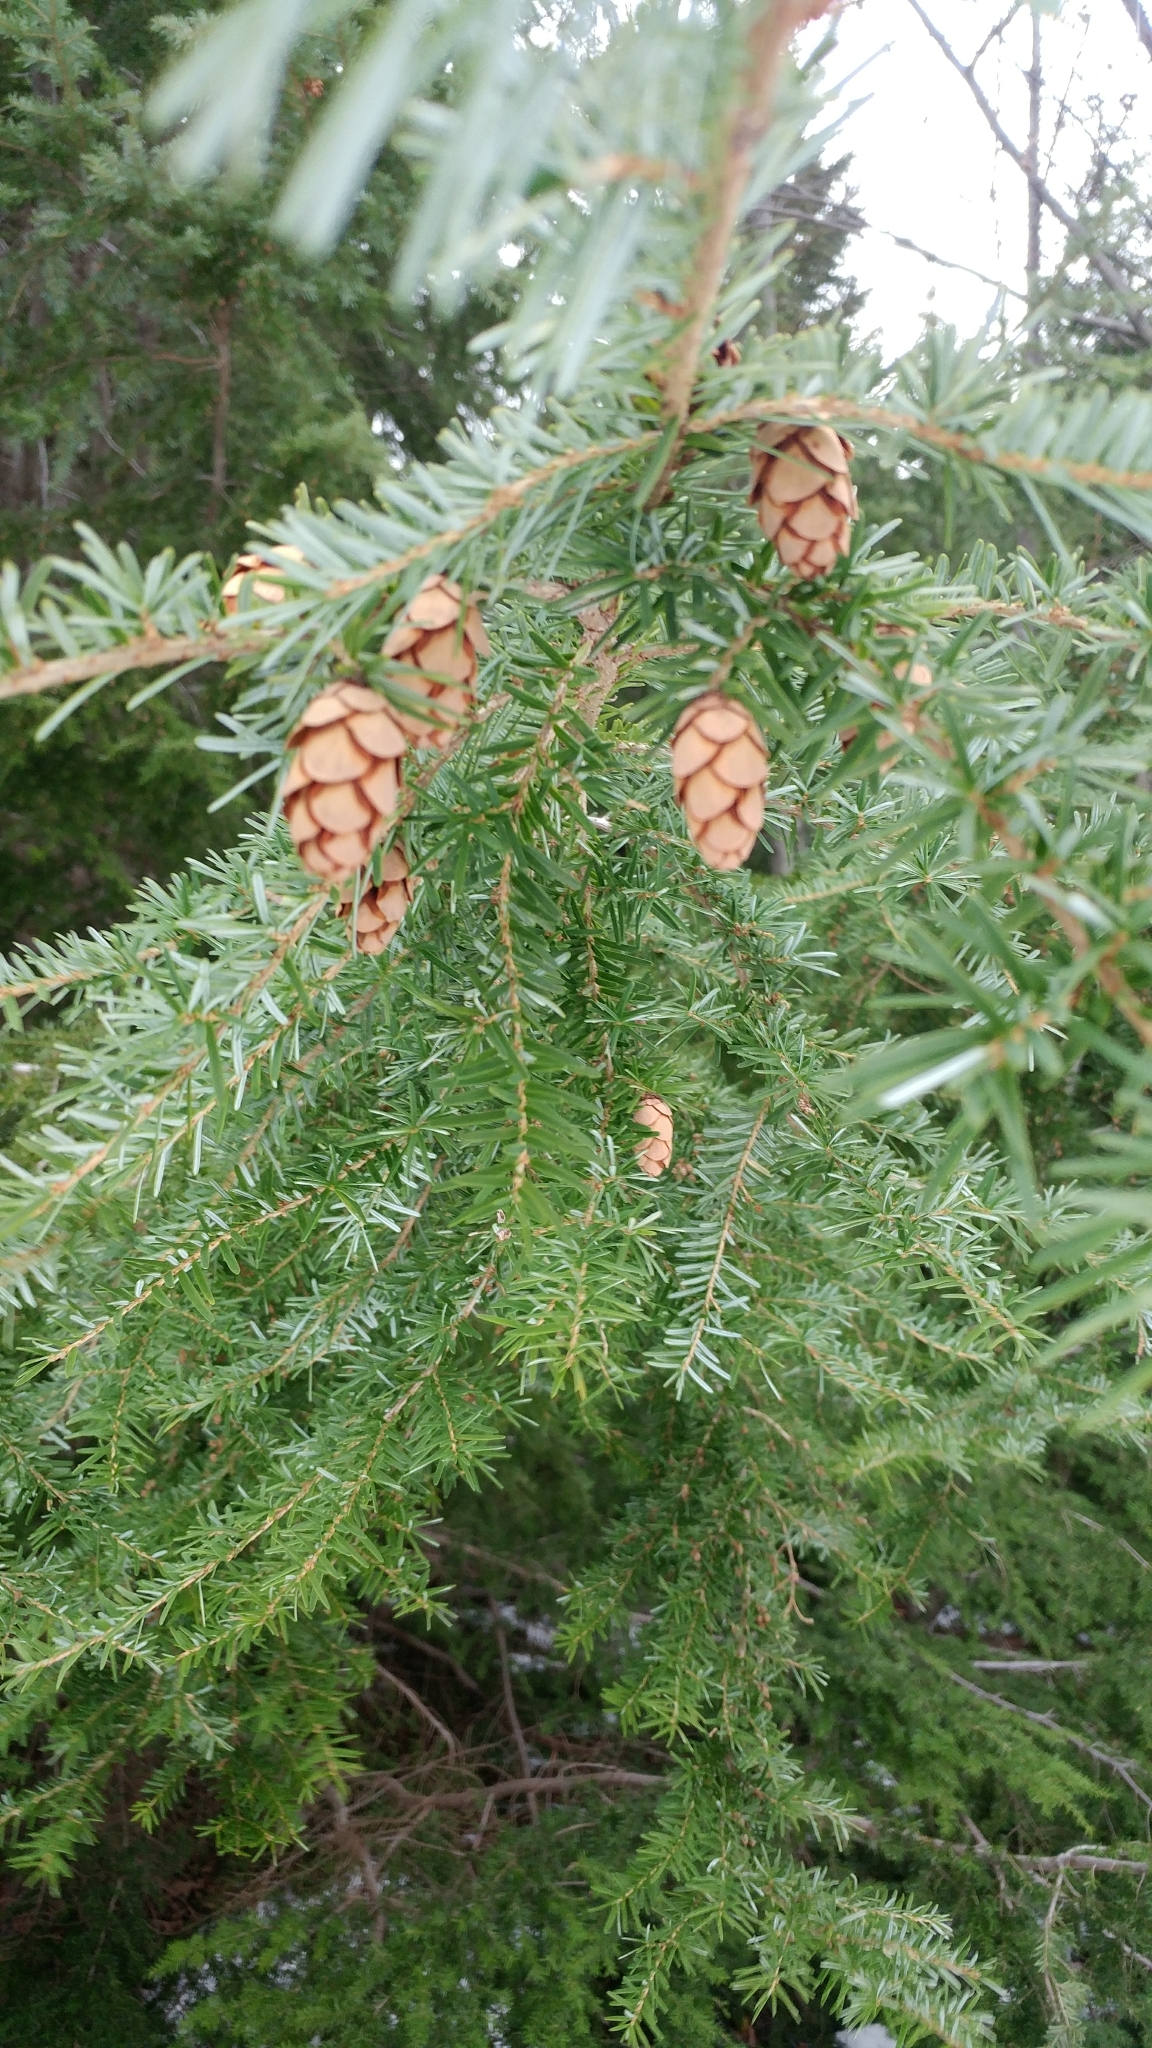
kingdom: Plantae
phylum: Tracheophyta
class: Pinopsida
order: Pinales
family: Pinaceae
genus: Tsuga
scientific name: Tsuga heterophylla
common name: Western hemlock
